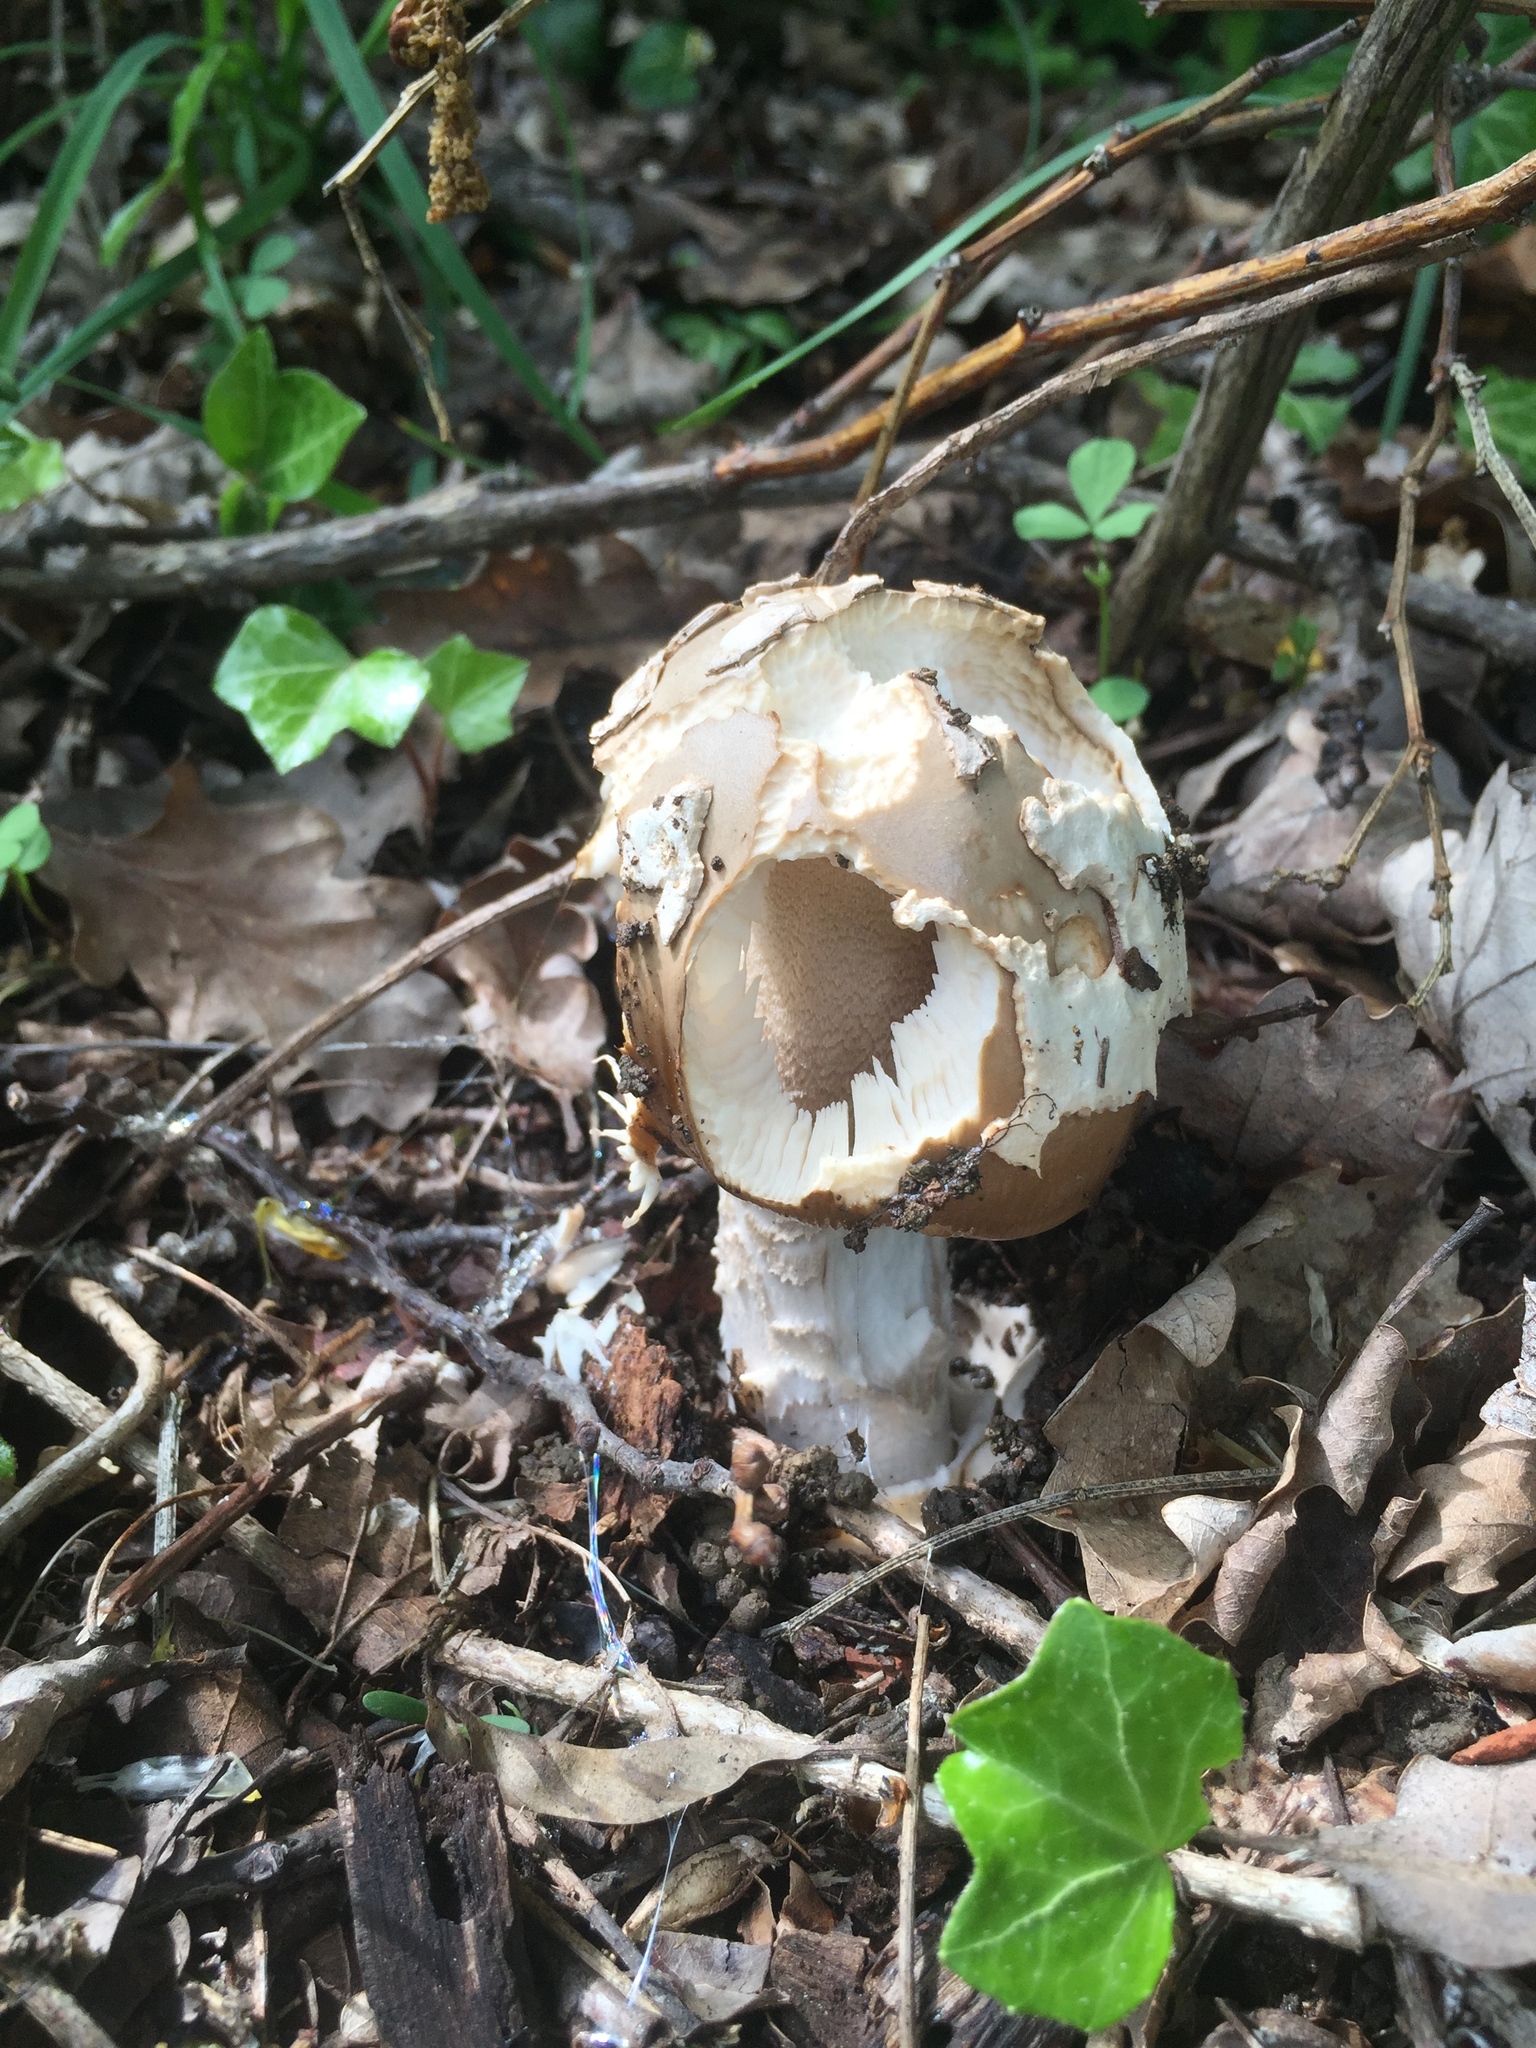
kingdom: Fungi
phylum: Basidiomycota
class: Agaricomycetes
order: Agaricales
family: Amanitaceae
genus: Amanita
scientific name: Amanita lividopallescens
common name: Pale grisette
